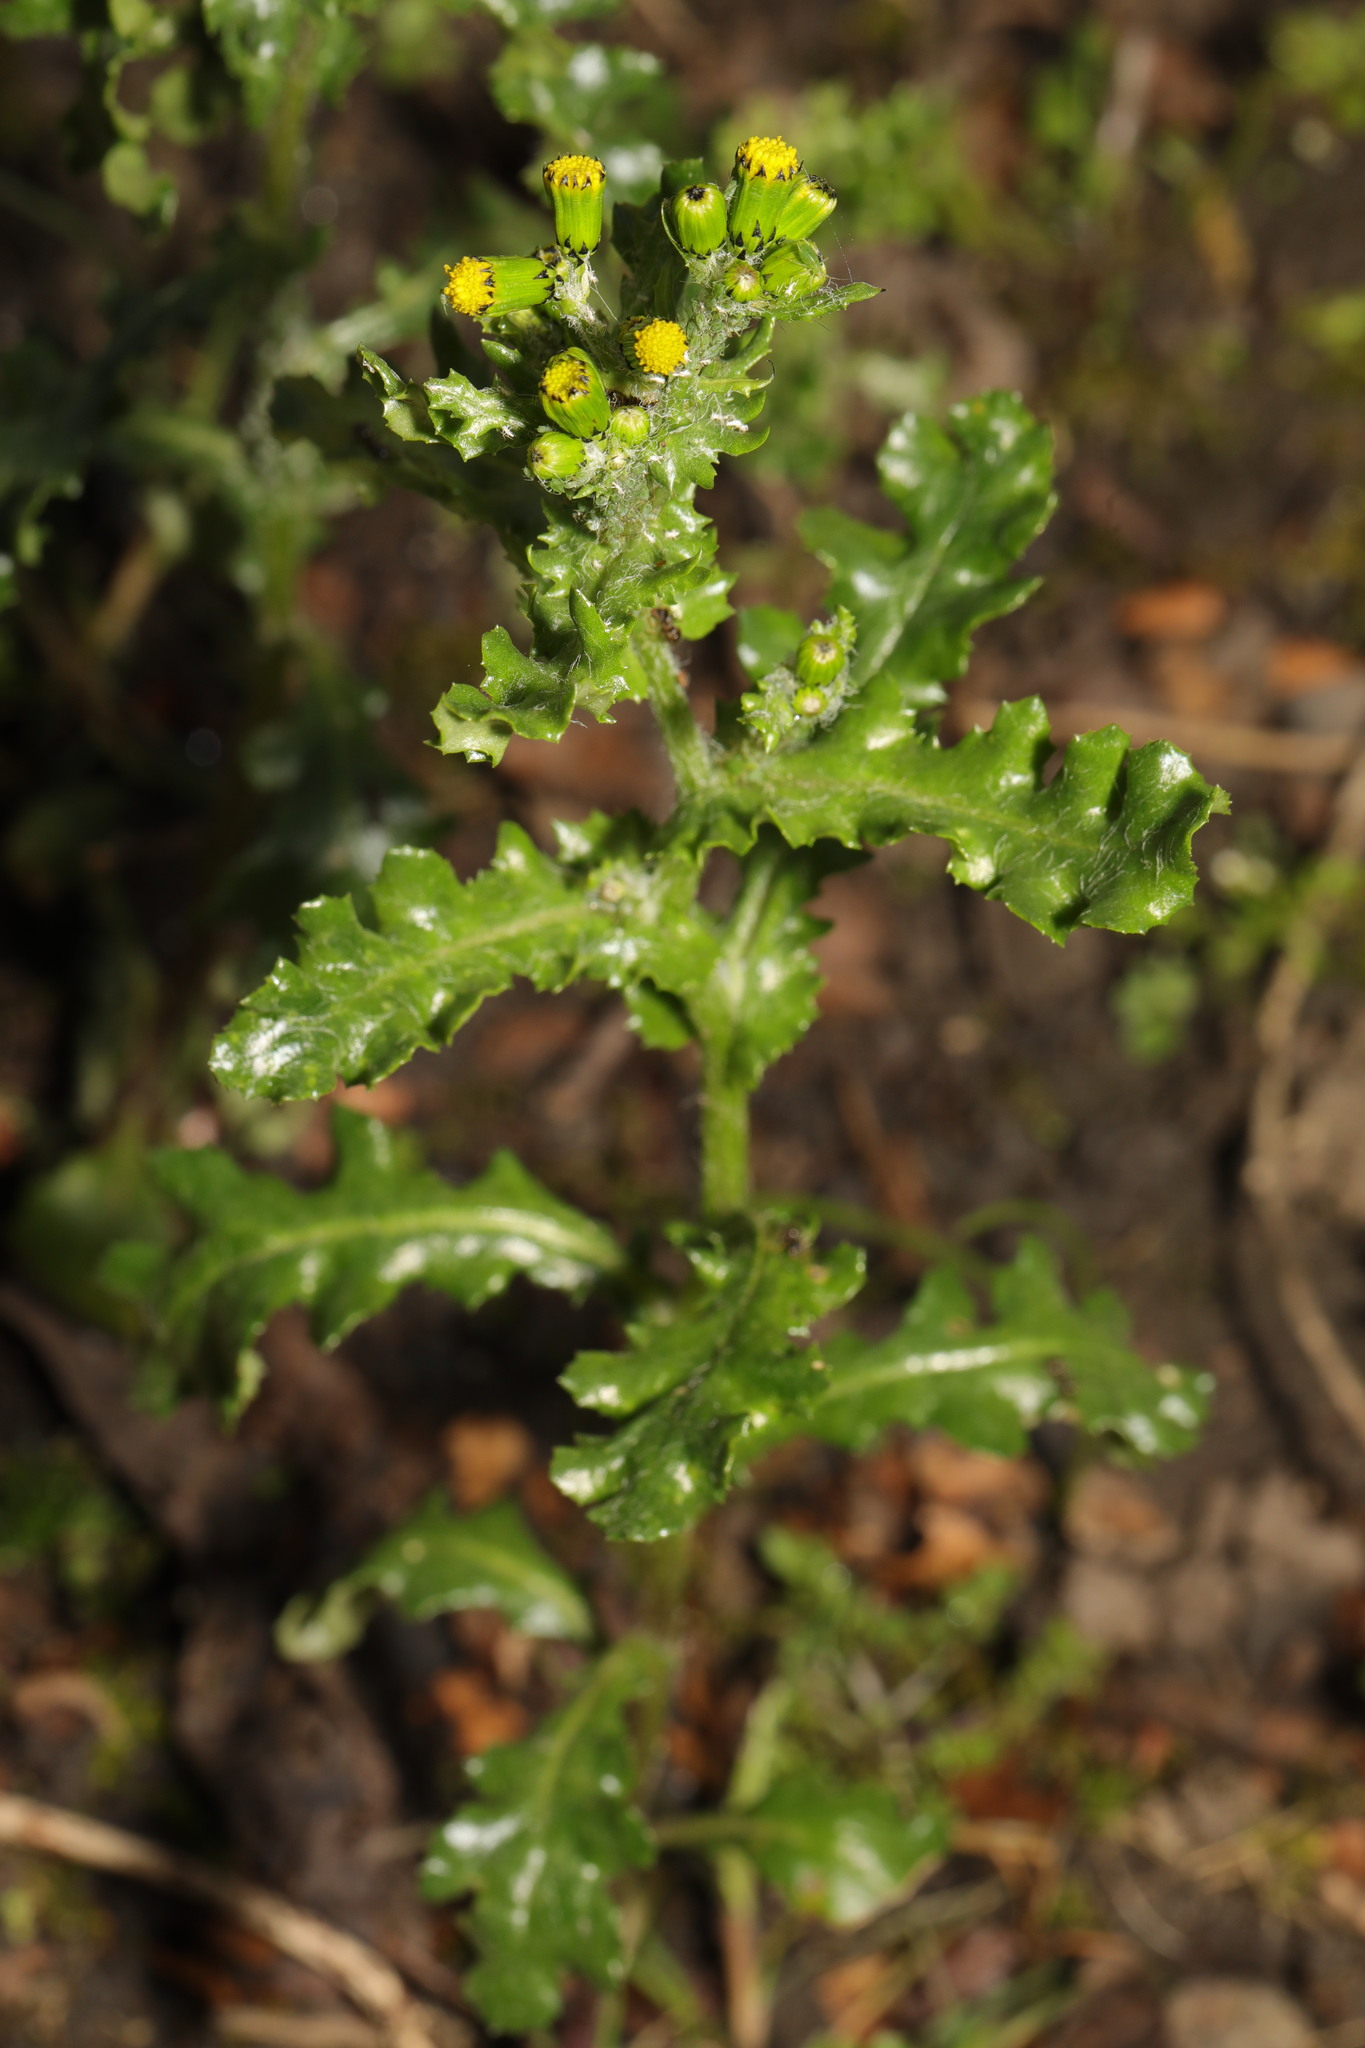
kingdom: Plantae
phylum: Tracheophyta
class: Magnoliopsida
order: Asterales
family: Asteraceae
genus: Senecio
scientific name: Senecio vulgaris
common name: Old-man-in-the-spring
